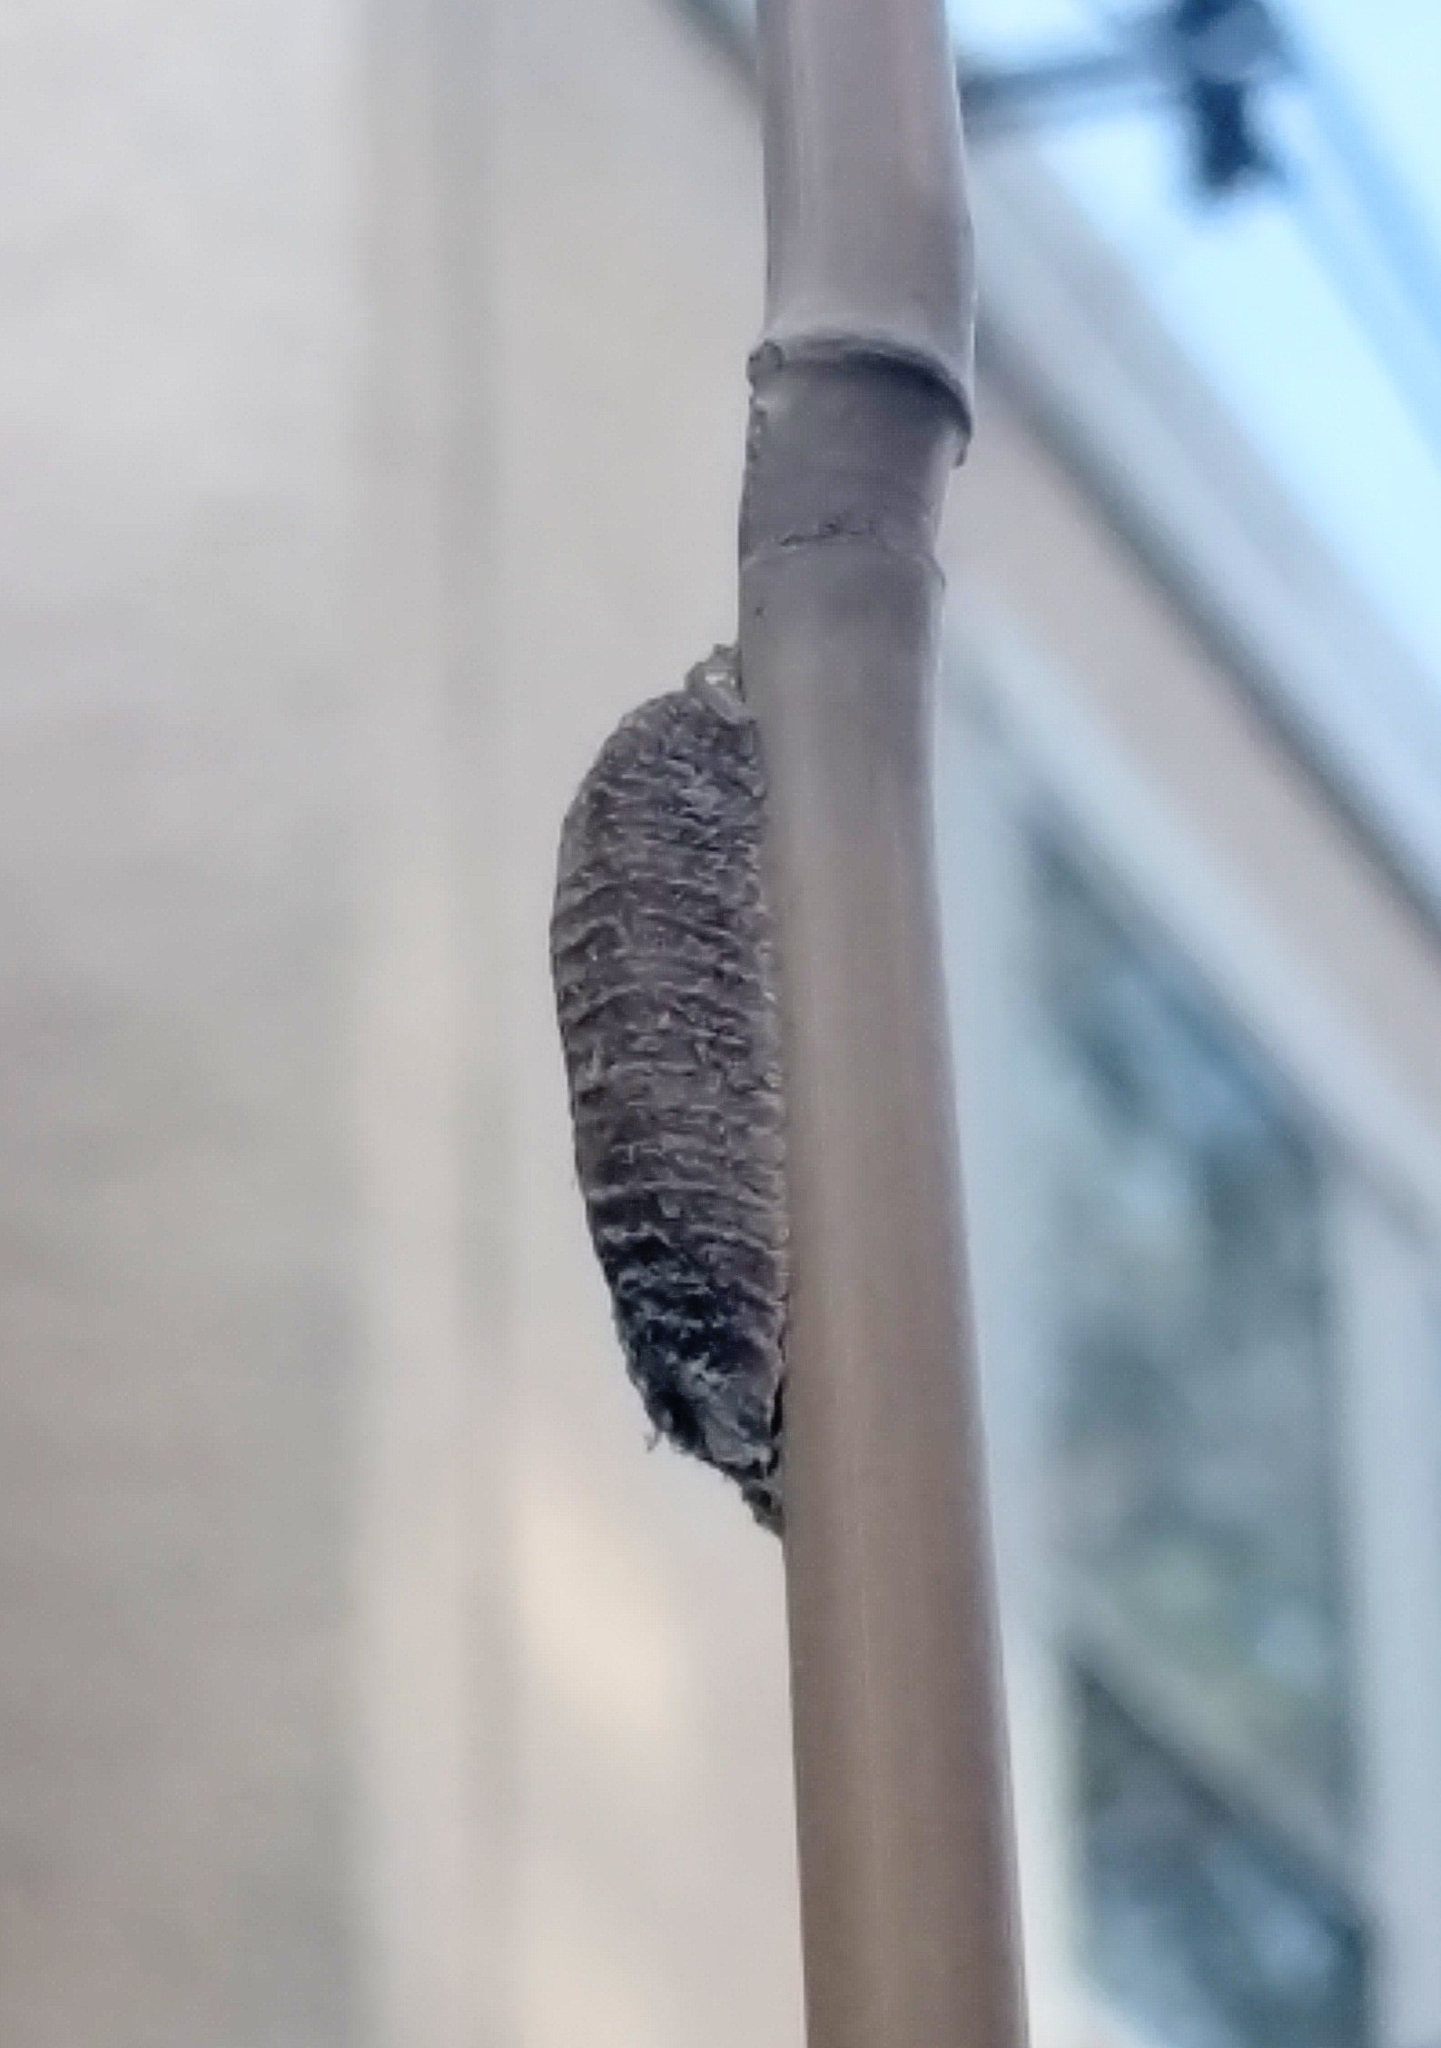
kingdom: Animalia
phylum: Arthropoda
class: Insecta
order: Mantodea
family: Mantidae
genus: Stagmomantis
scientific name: Stagmomantis carolina
